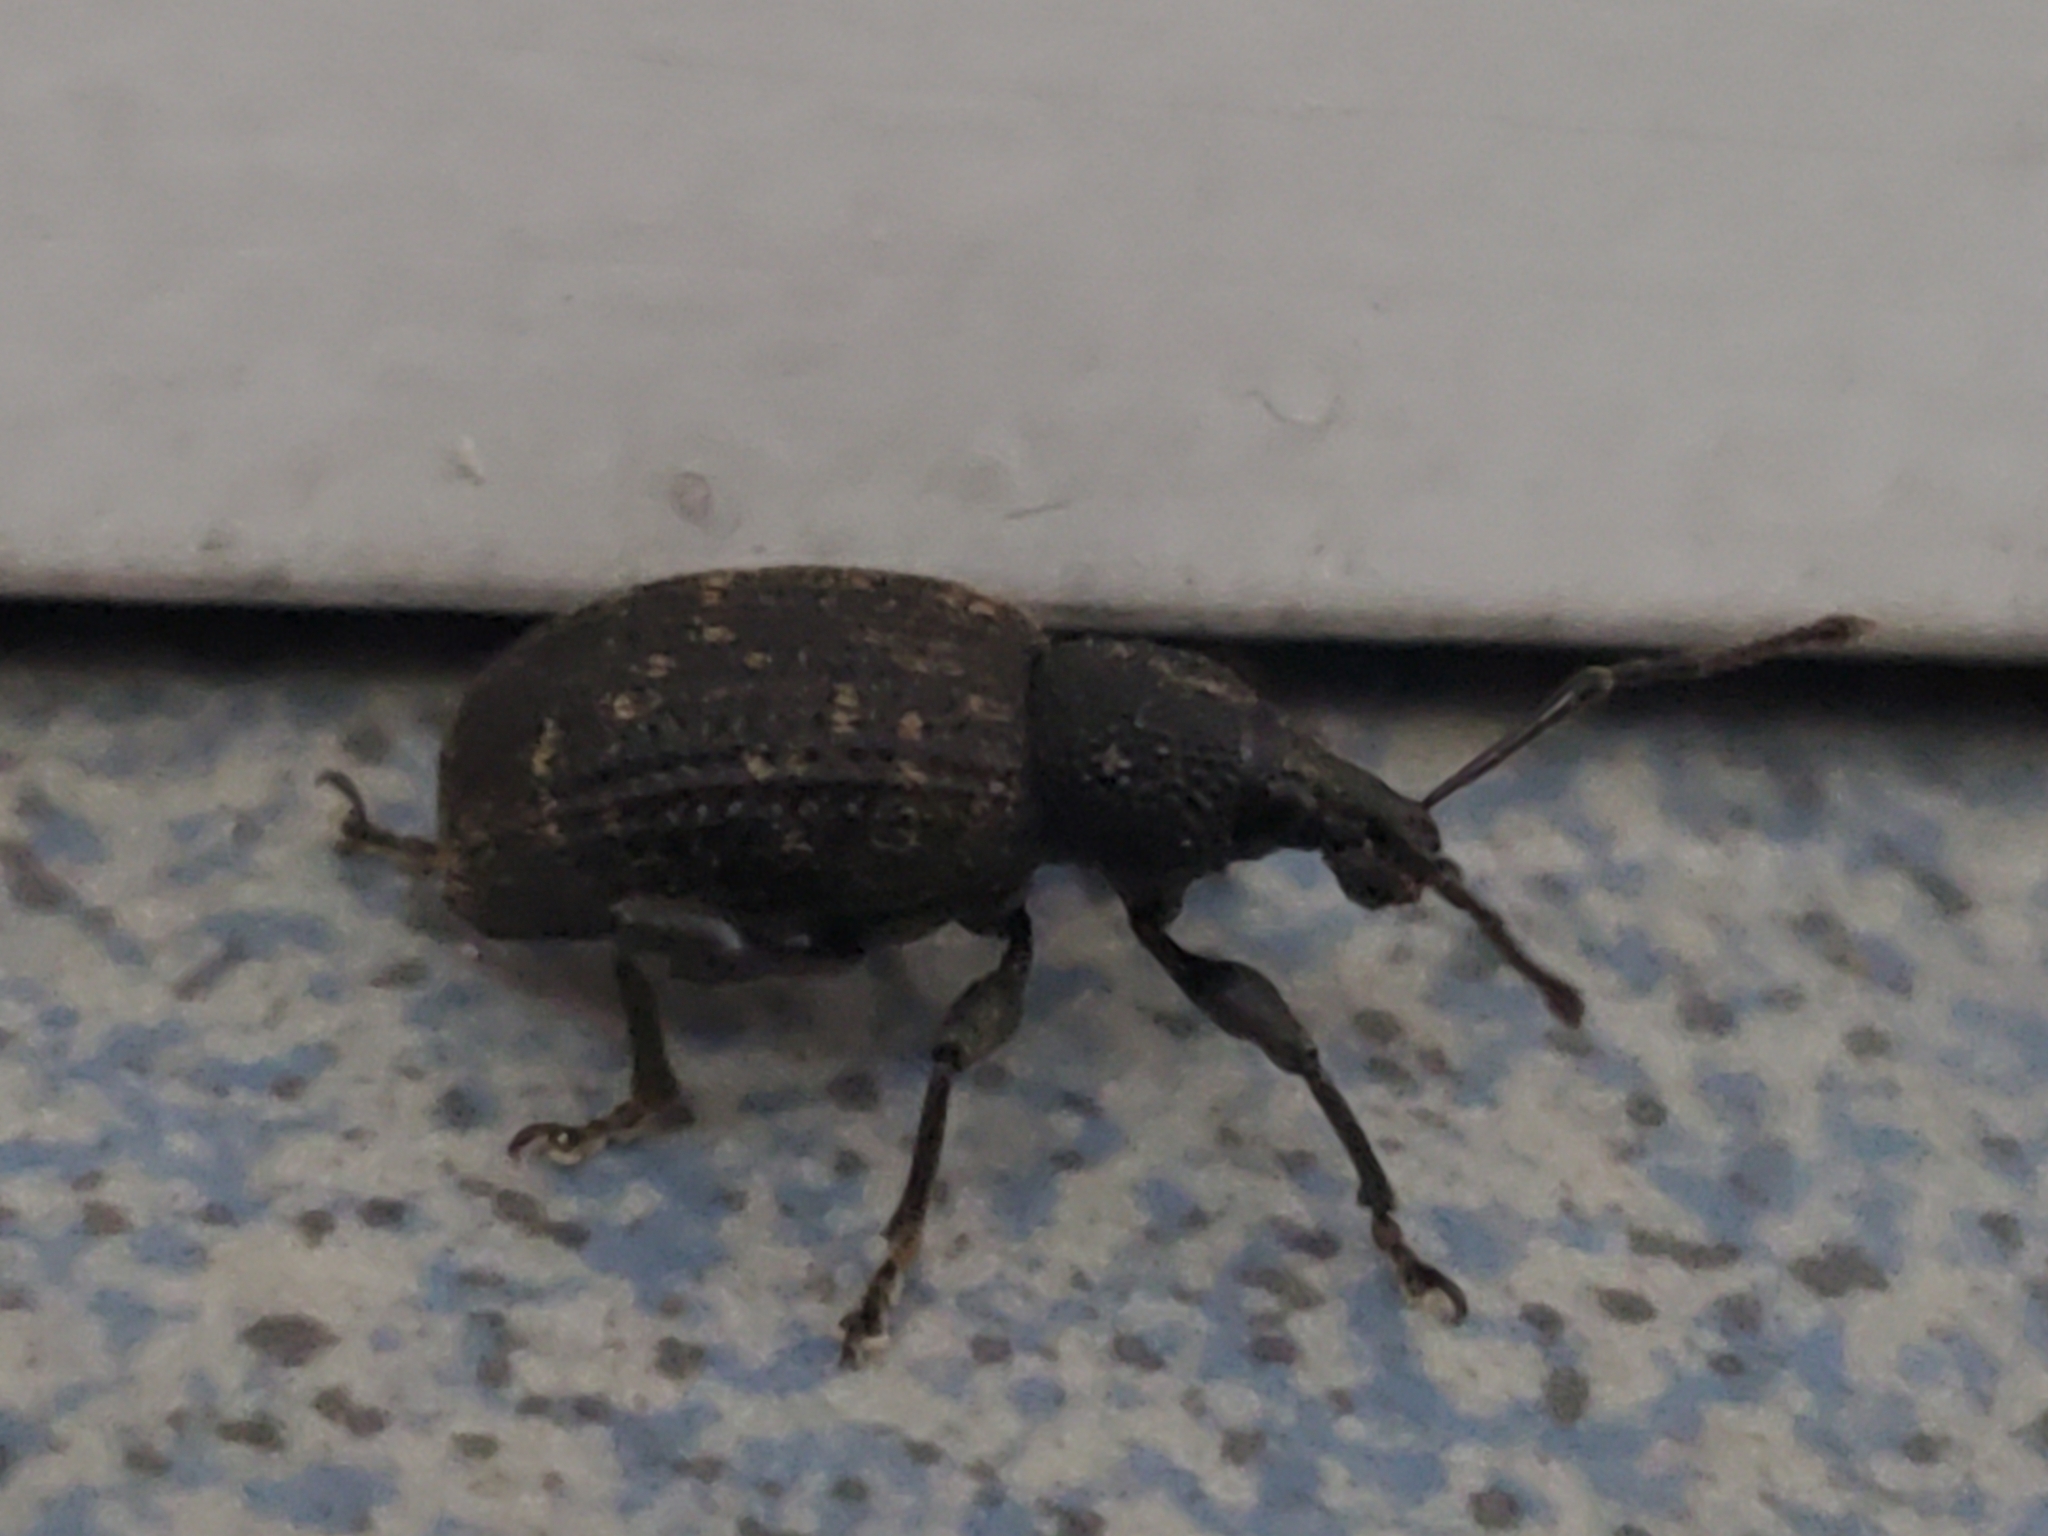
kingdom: Animalia
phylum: Arthropoda
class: Insecta
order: Coleoptera
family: Curculionidae
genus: Otiorhynchus
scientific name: Otiorhynchus sulcatus
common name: Black vine weevil
